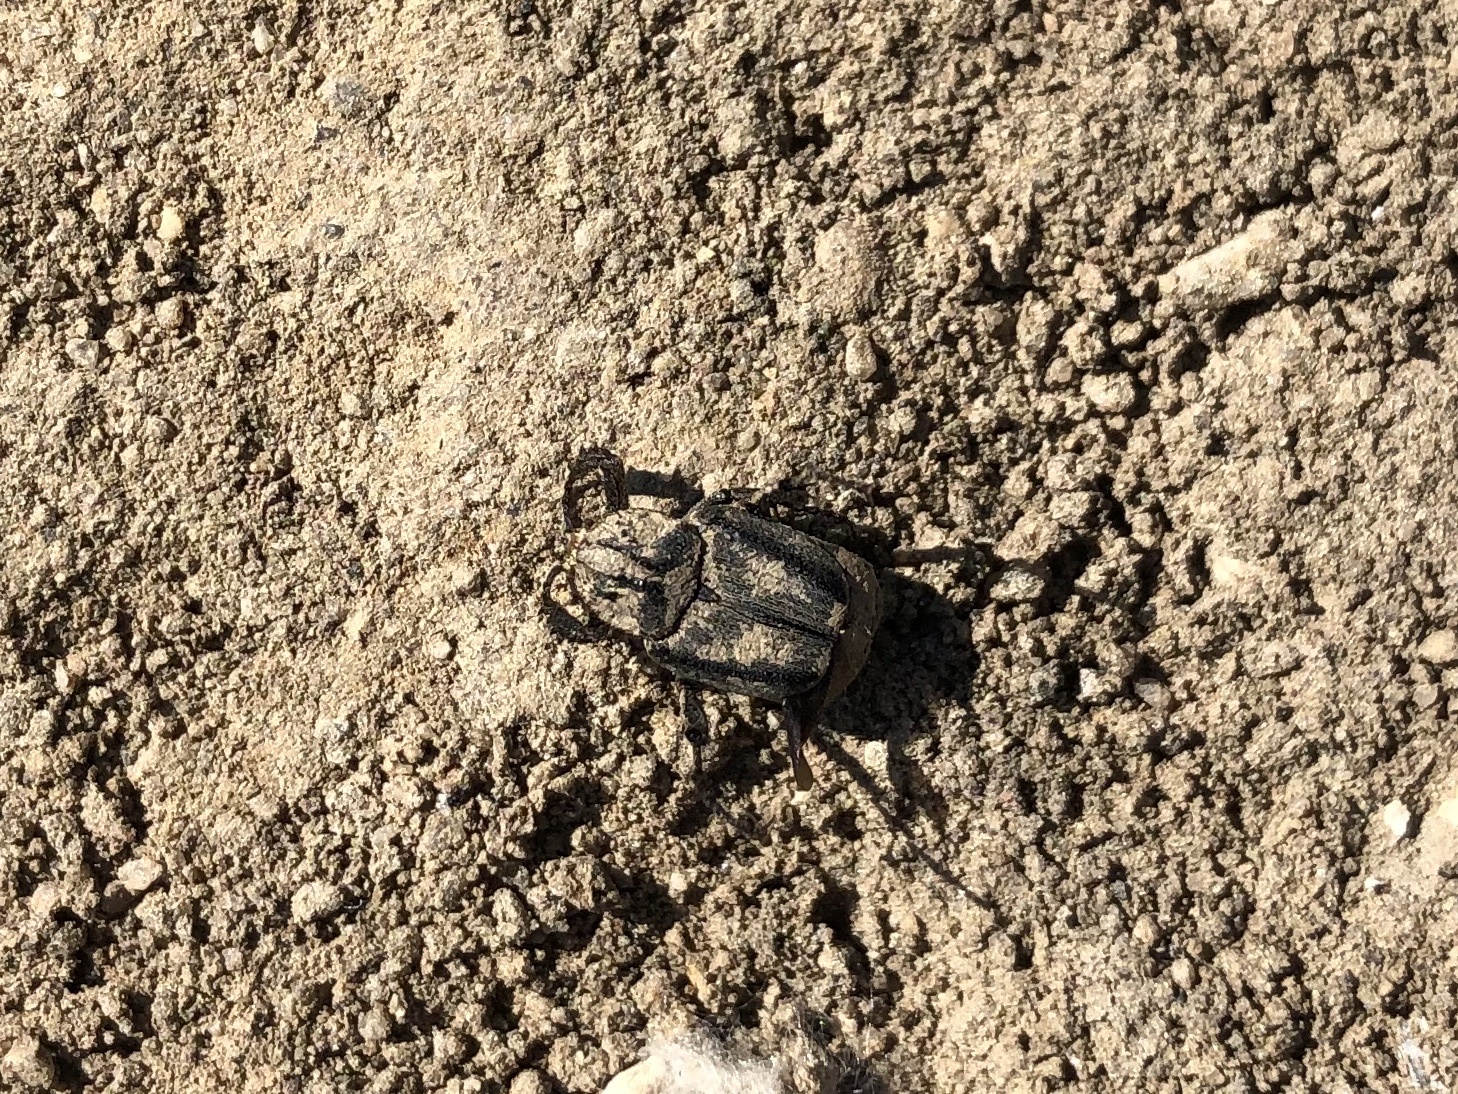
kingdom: Animalia
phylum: Arthropoda
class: Insecta
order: Coleoptera
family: Scarabaeidae
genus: Valgus
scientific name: Valgus hemipterus
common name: Bug flower chafer
